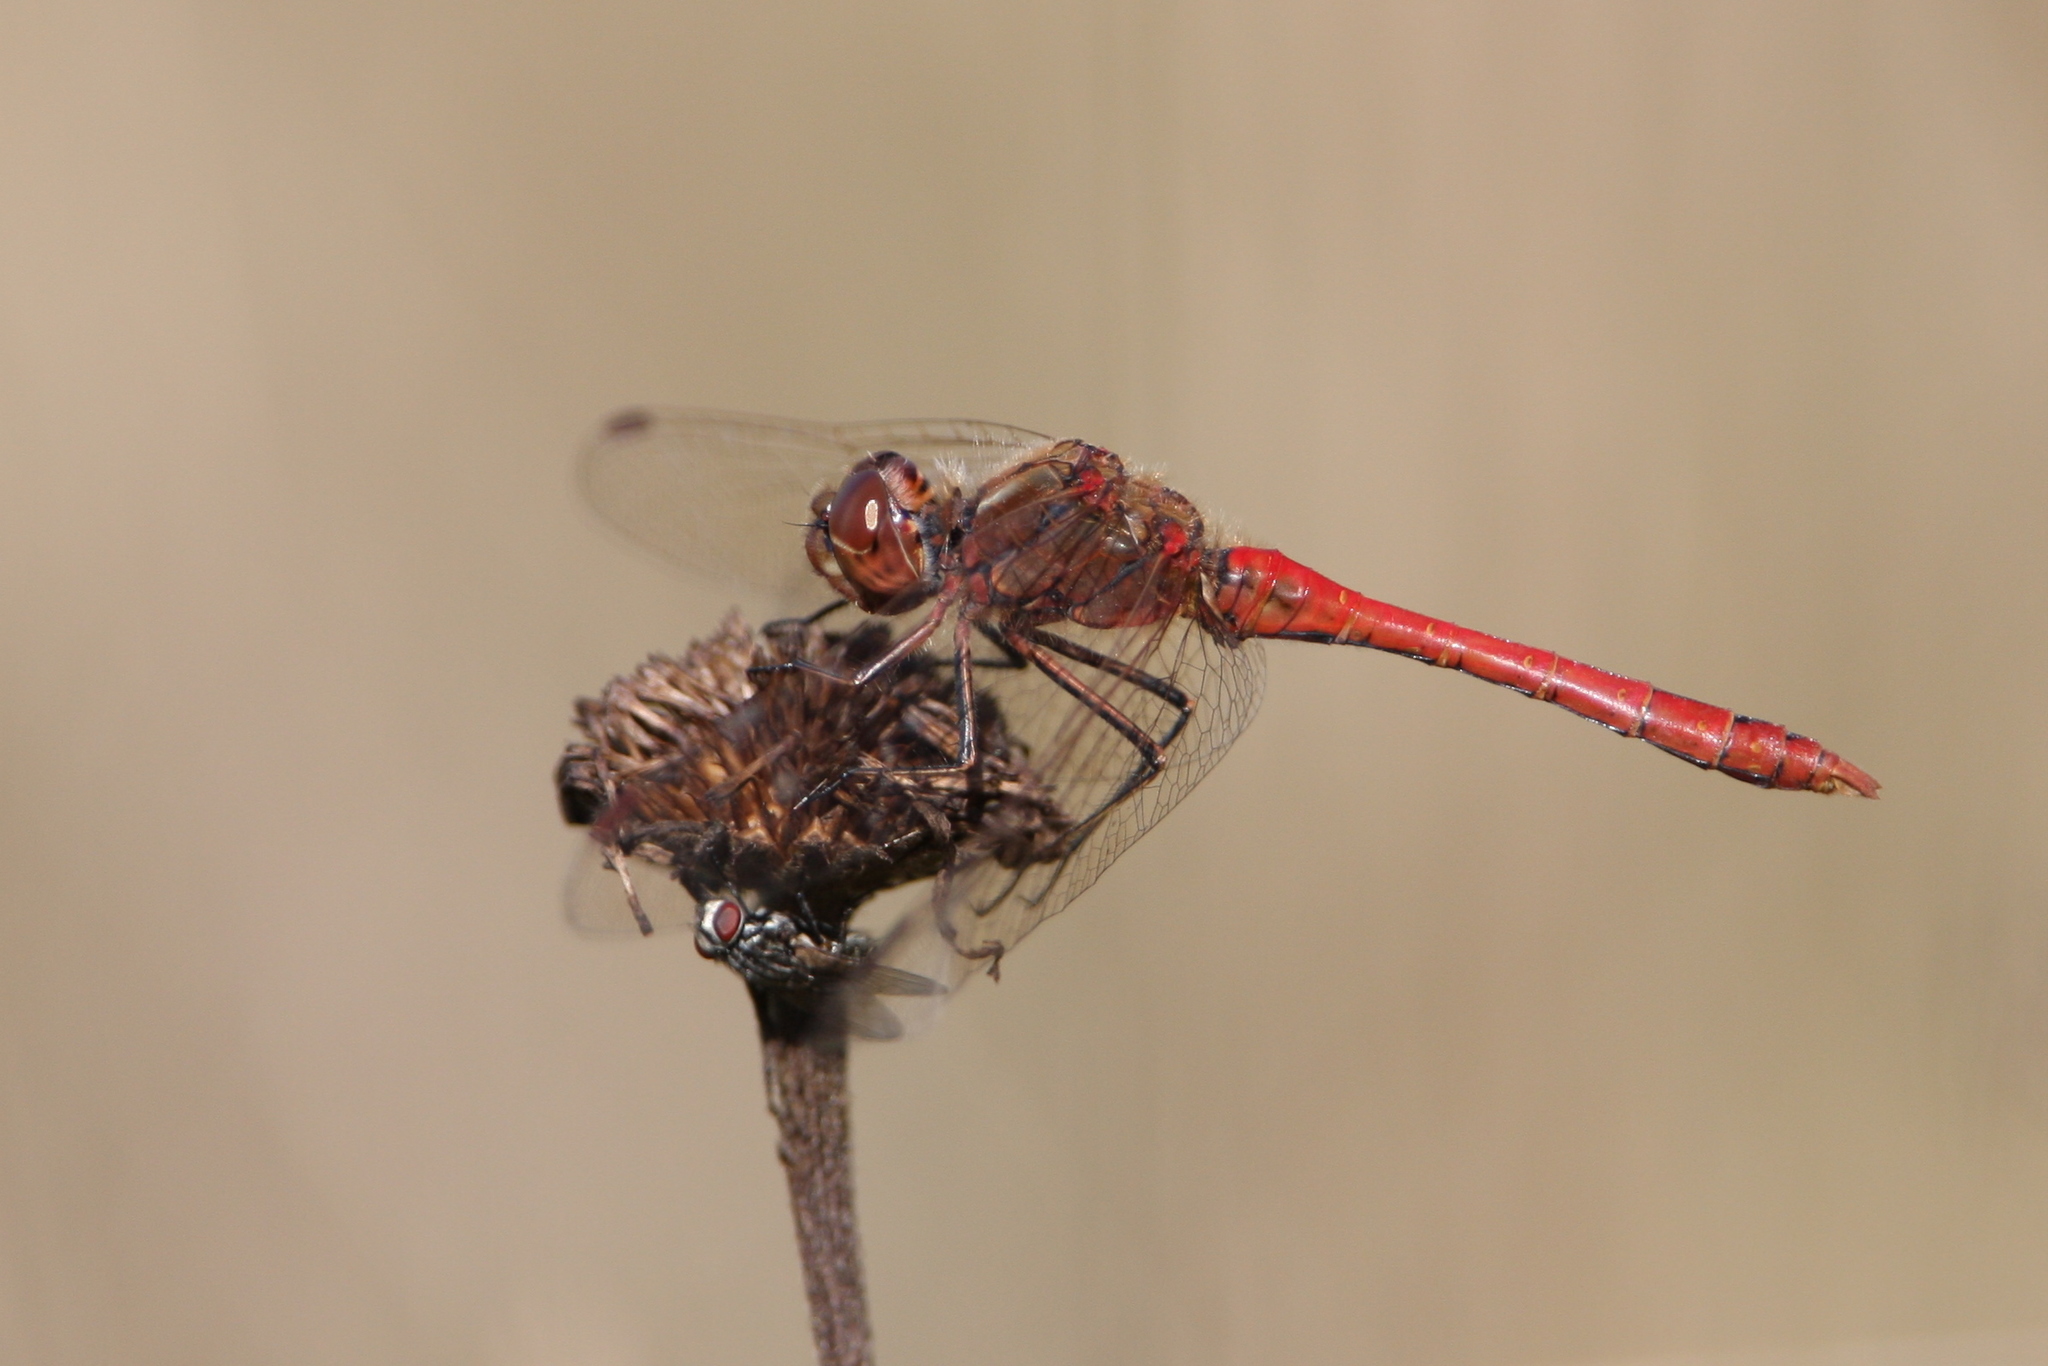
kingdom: Animalia
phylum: Arthropoda
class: Insecta
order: Odonata
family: Libellulidae
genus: Sympetrum
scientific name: Sympetrum vulgatum
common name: Vagrant darter
